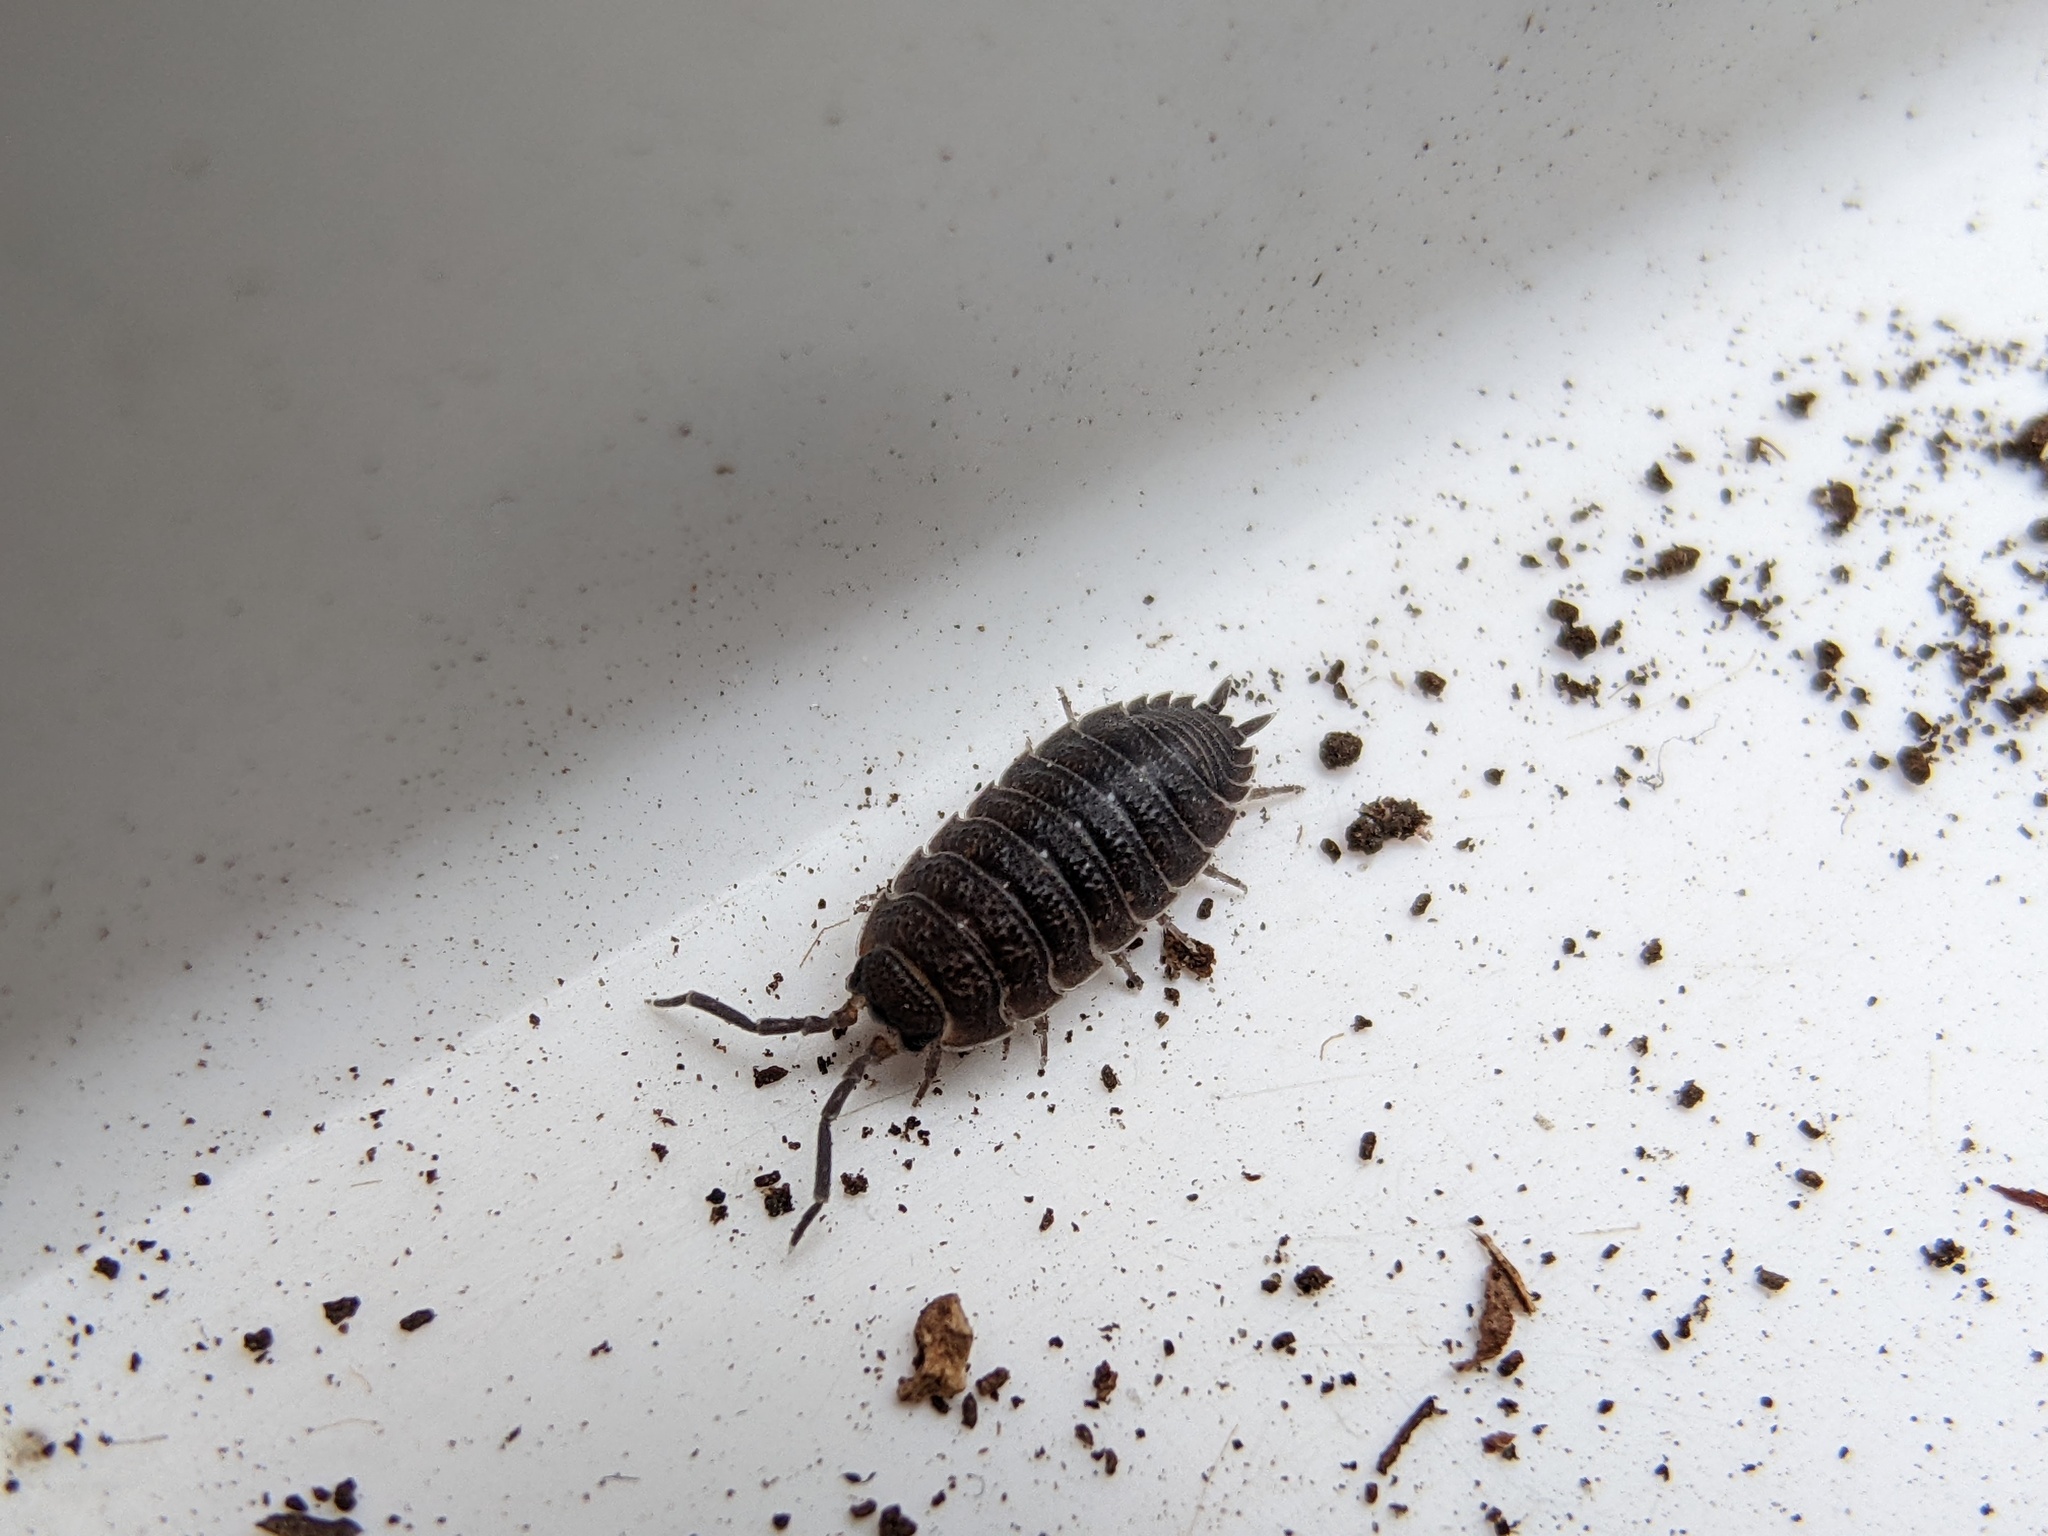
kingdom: Animalia
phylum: Arthropoda
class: Malacostraca
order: Isopoda
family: Porcellionidae
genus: Porcellio
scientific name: Porcellio scaber
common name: Common rough woodlouse
